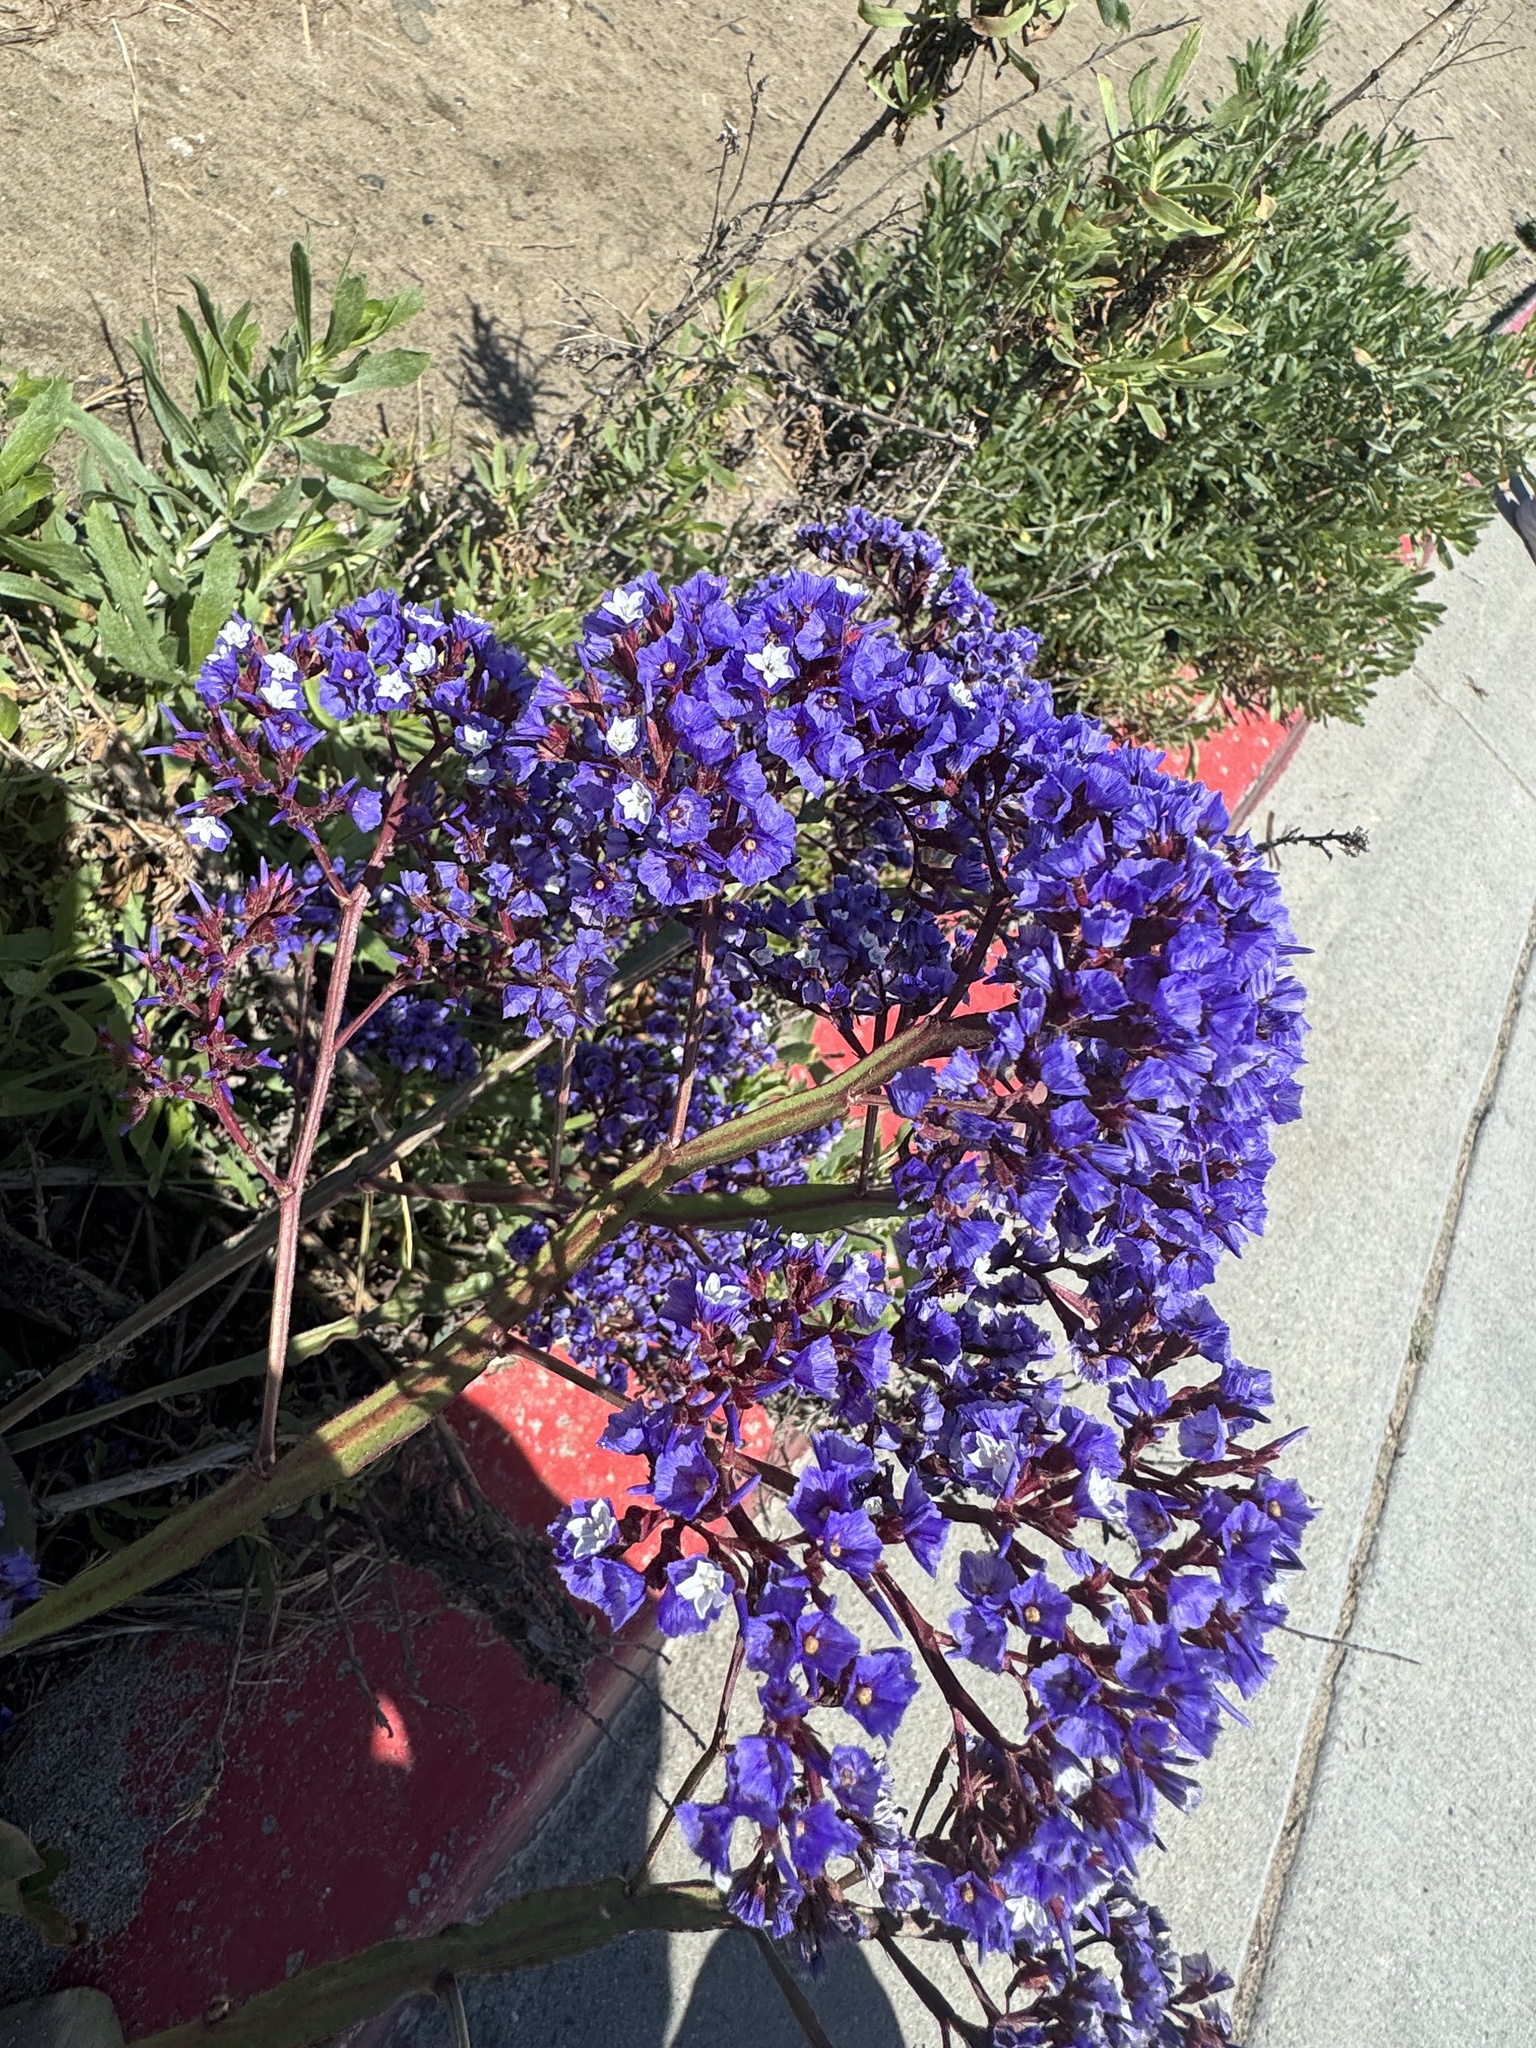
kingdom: Plantae
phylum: Tracheophyta
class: Magnoliopsida
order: Caryophyllales
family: Plumbaginaceae
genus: Limonium
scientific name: Limonium perezii
